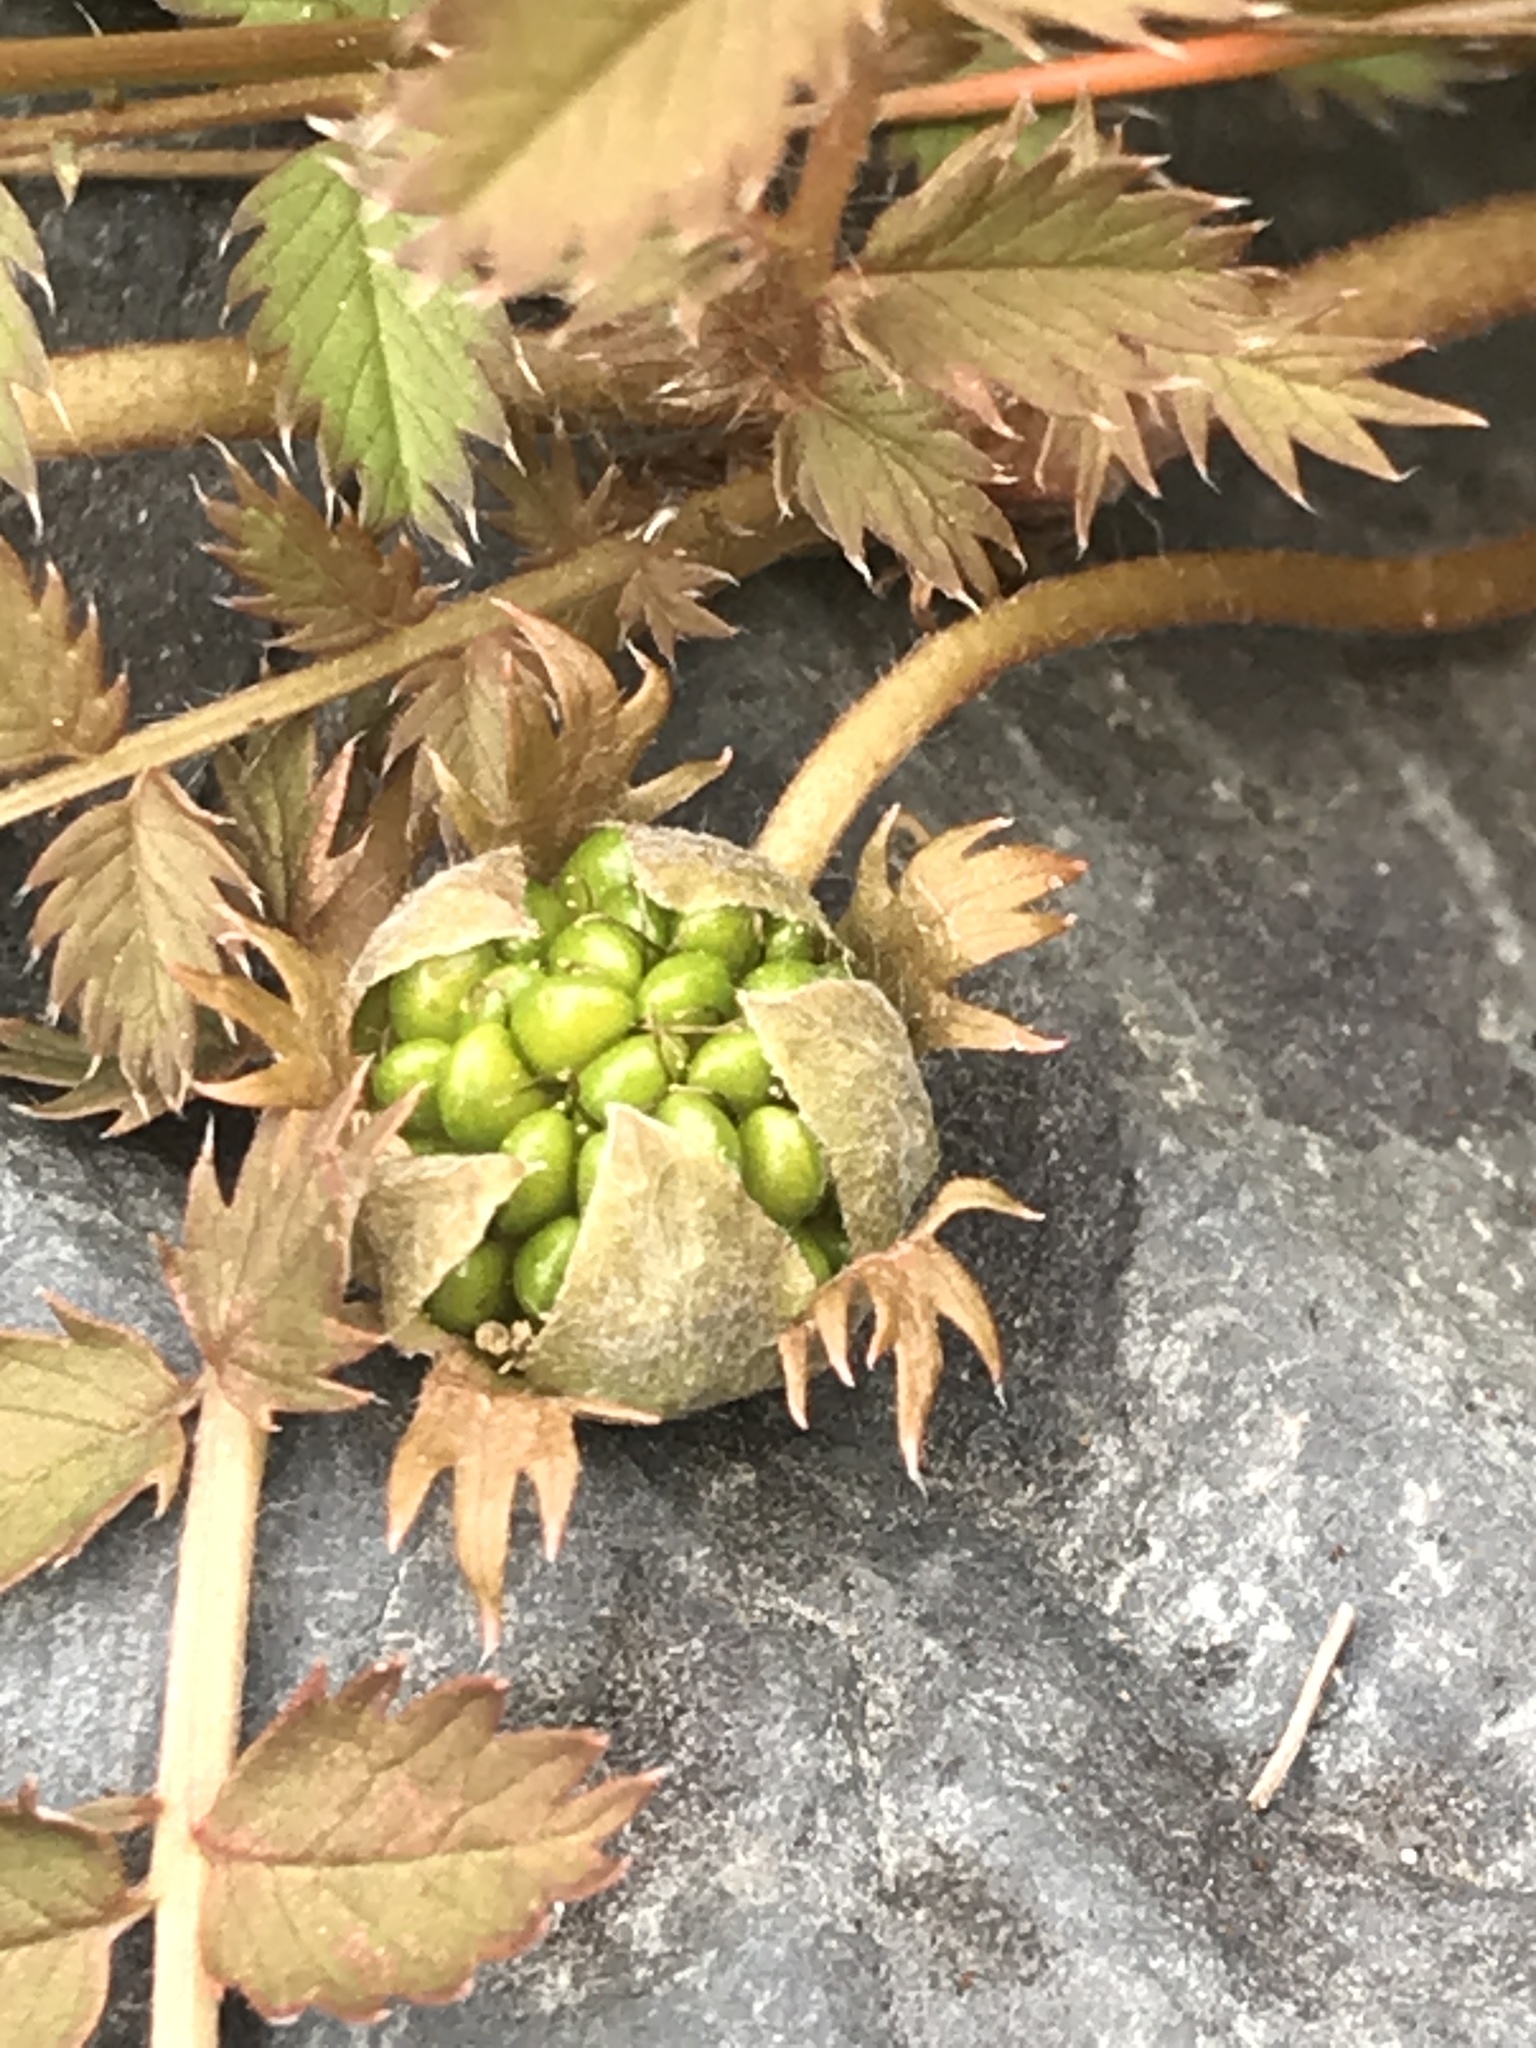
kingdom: Plantae
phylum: Tracheophyta
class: Magnoliopsida
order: Rosales
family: Rosaceae
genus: Argentina
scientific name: Argentina anserinoides
